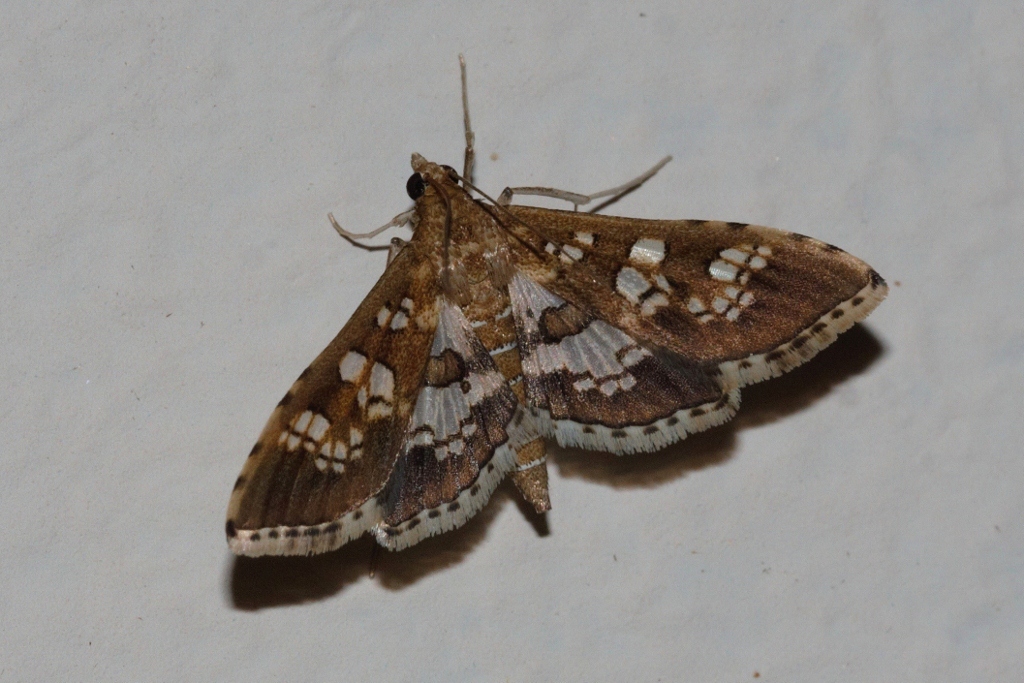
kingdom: Animalia
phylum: Arthropoda
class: Insecta
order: Lepidoptera
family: Crambidae
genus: Sameodes
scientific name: Sameodes cancellalis
